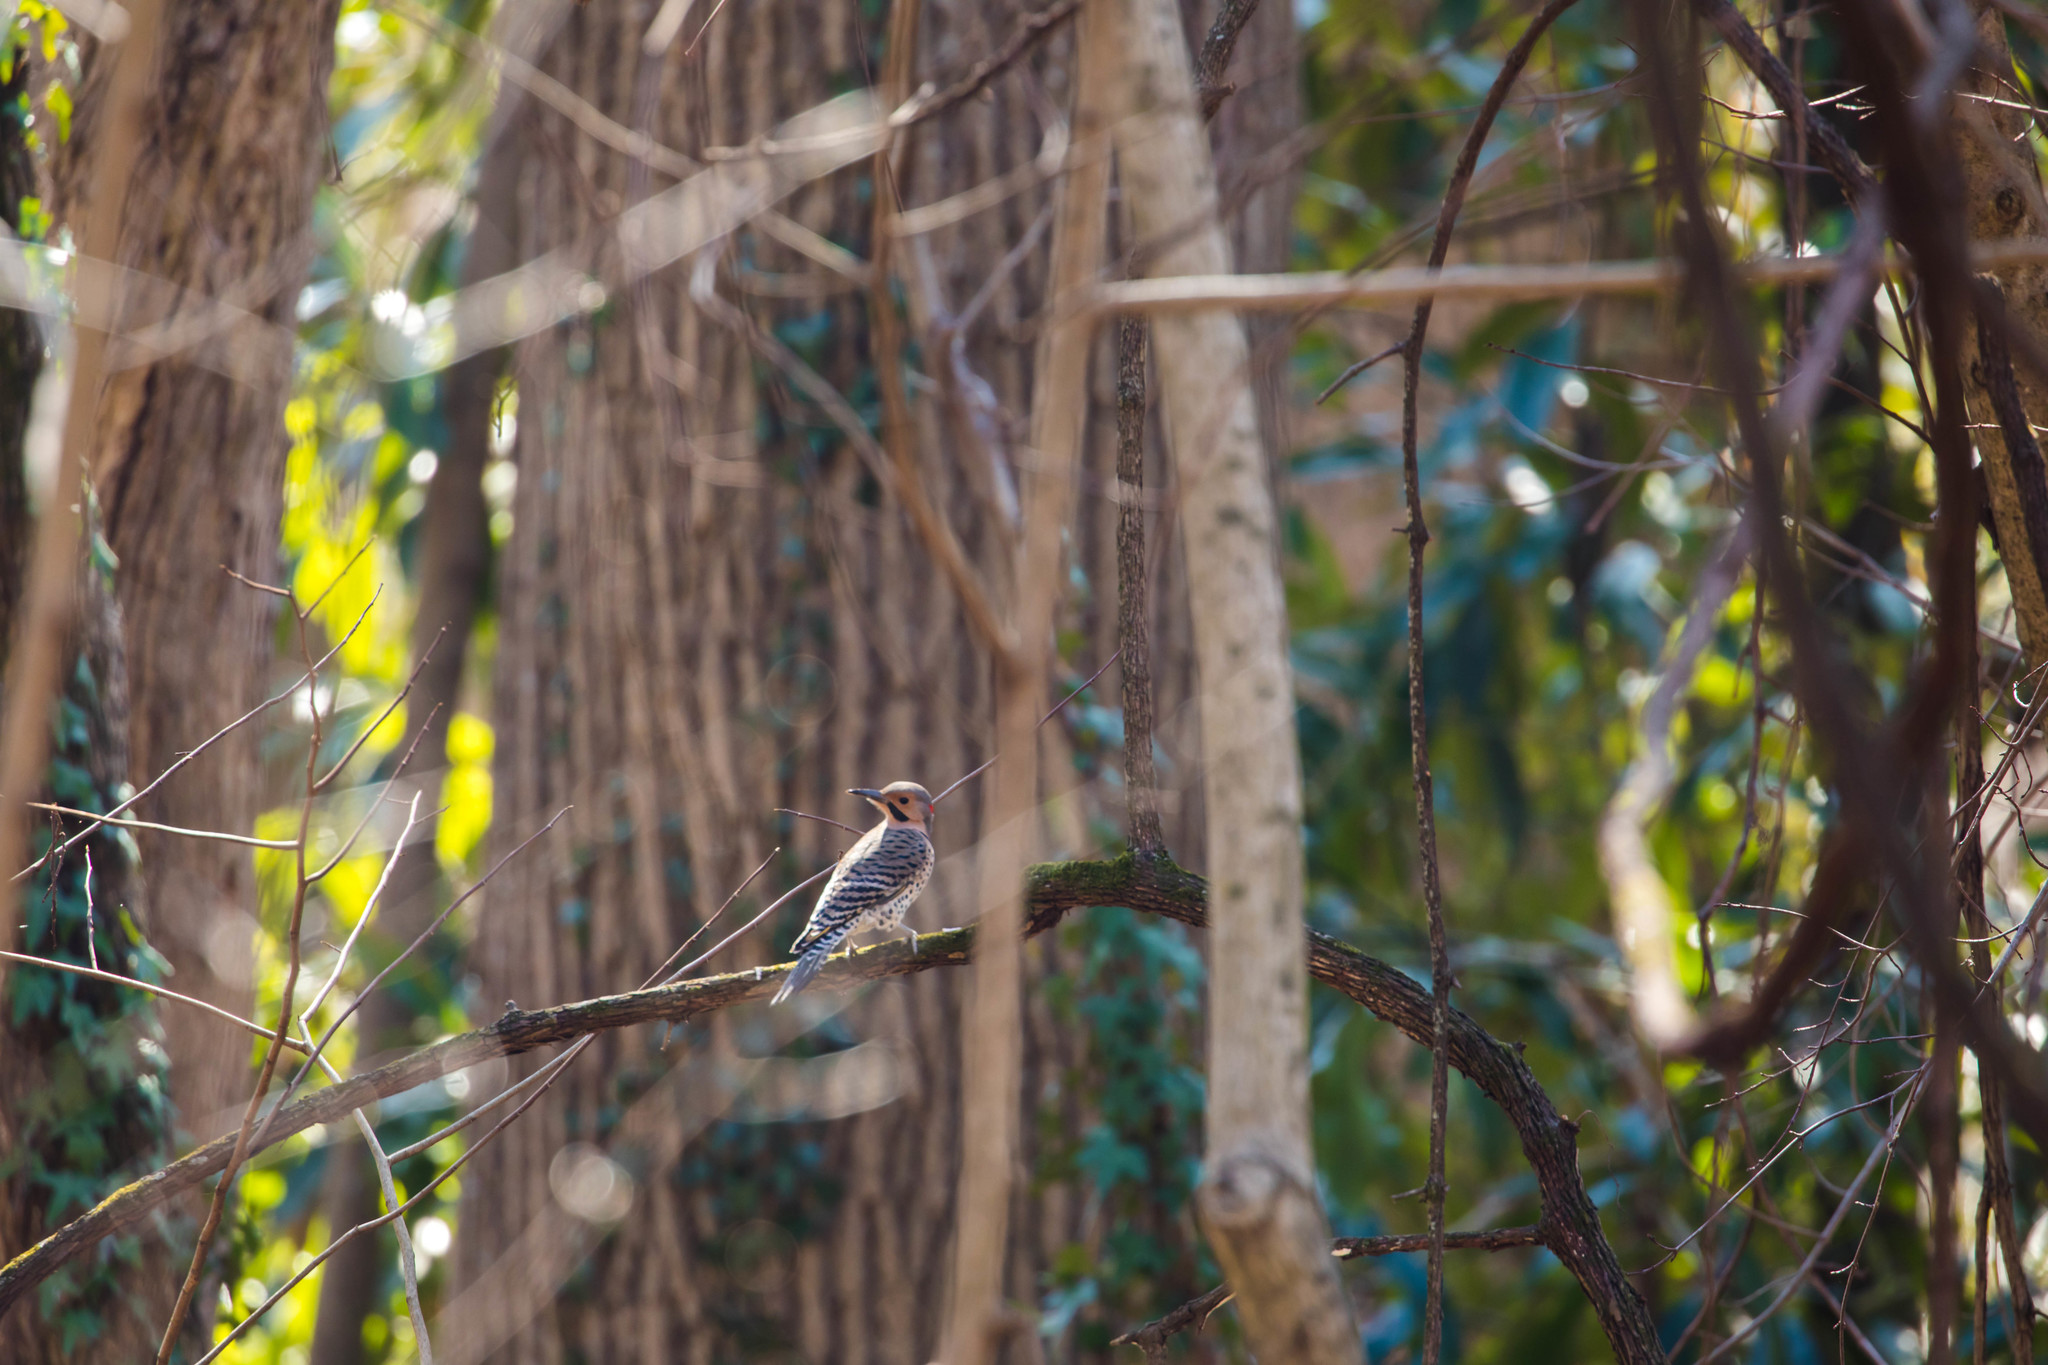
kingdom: Animalia
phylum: Chordata
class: Aves
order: Piciformes
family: Picidae
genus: Colaptes
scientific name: Colaptes auratus
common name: Northern flicker
